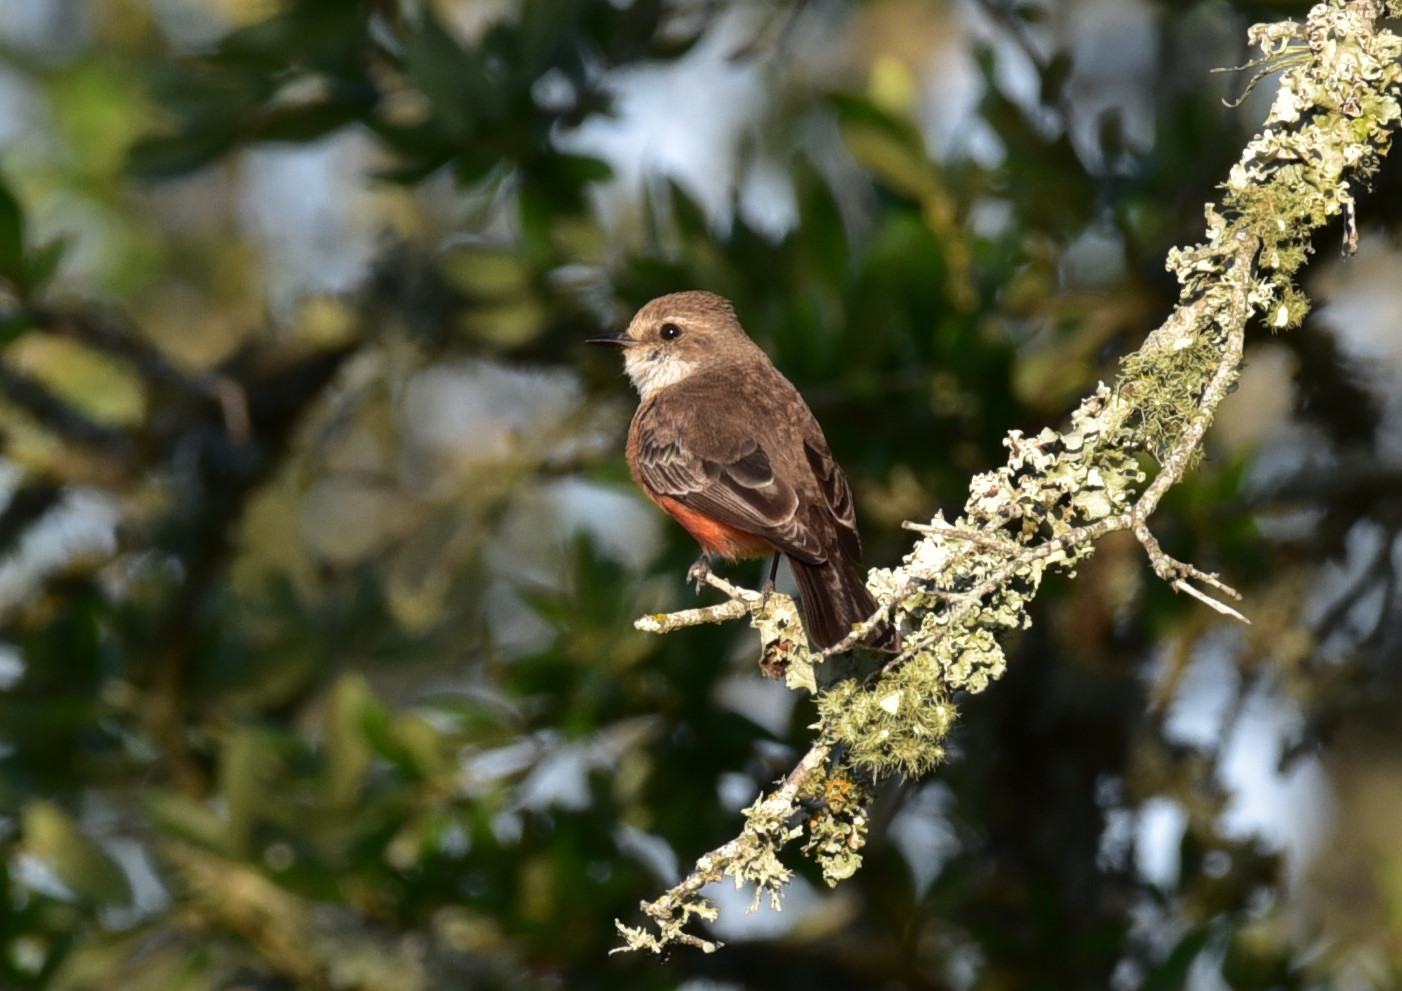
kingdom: Animalia
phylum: Chordata
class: Aves
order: Passeriformes
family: Tyrannidae
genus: Pyrocephalus
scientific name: Pyrocephalus rubinus
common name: Vermilion flycatcher
